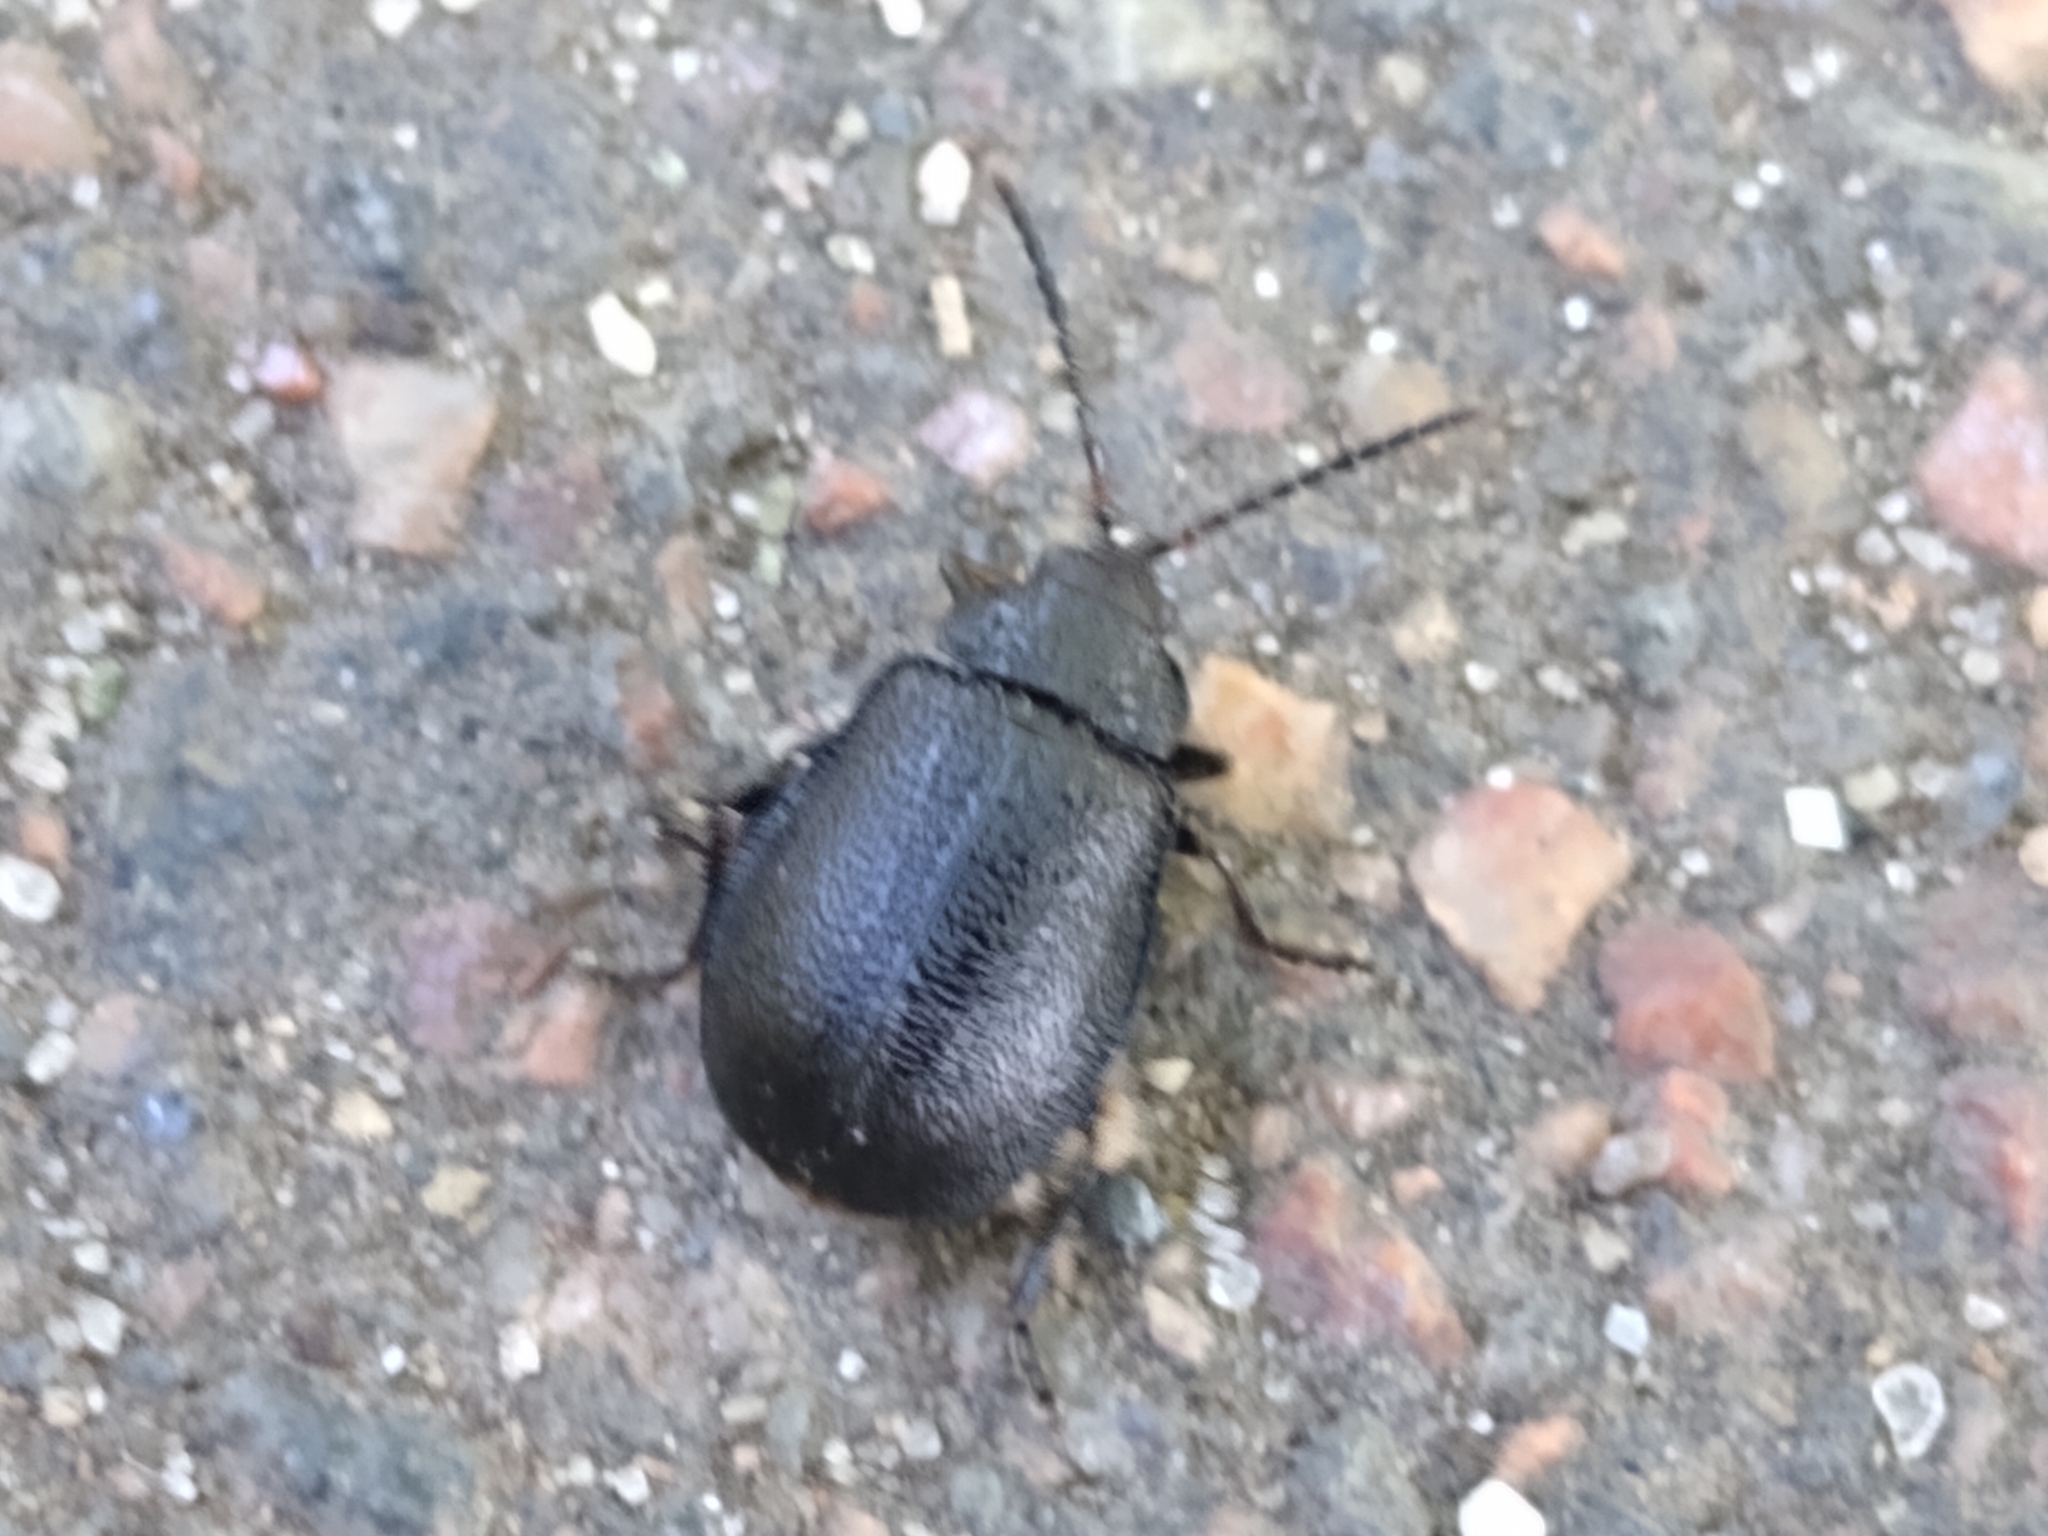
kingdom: Animalia
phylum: Arthropoda
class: Insecta
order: Coleoptera
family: Chrysomelidae
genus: Galeruca
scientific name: Galeruca tanaceti
